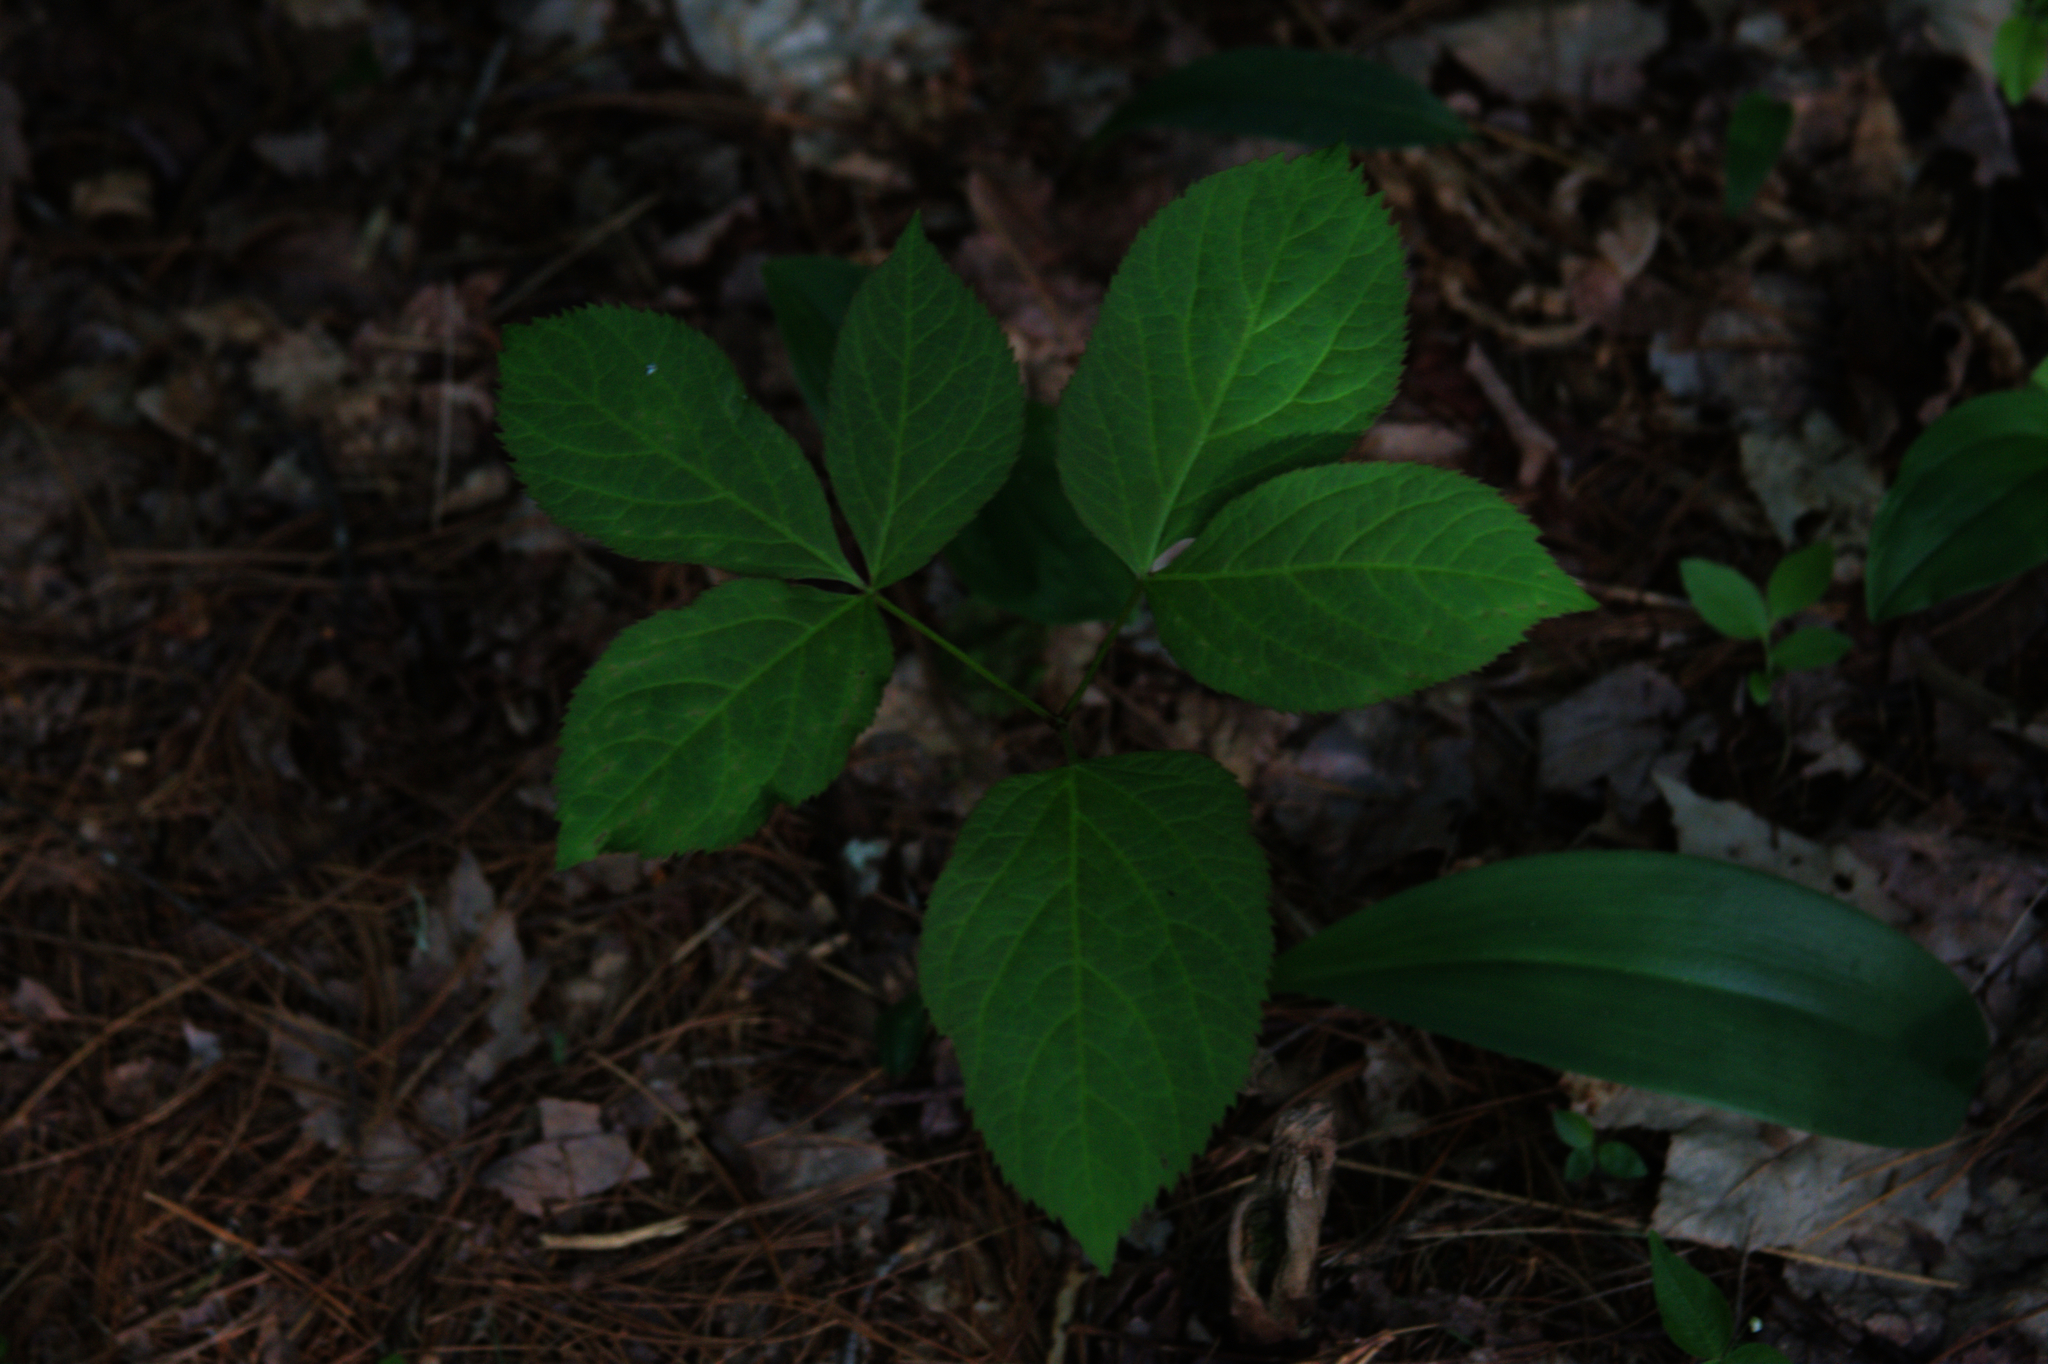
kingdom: Plantae
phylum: Tracheophyta
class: Magnoliopsida
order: Apiales
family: Araliaceae
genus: Aralia
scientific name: Aralia nudicaulis
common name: Wild sarsaparilla
